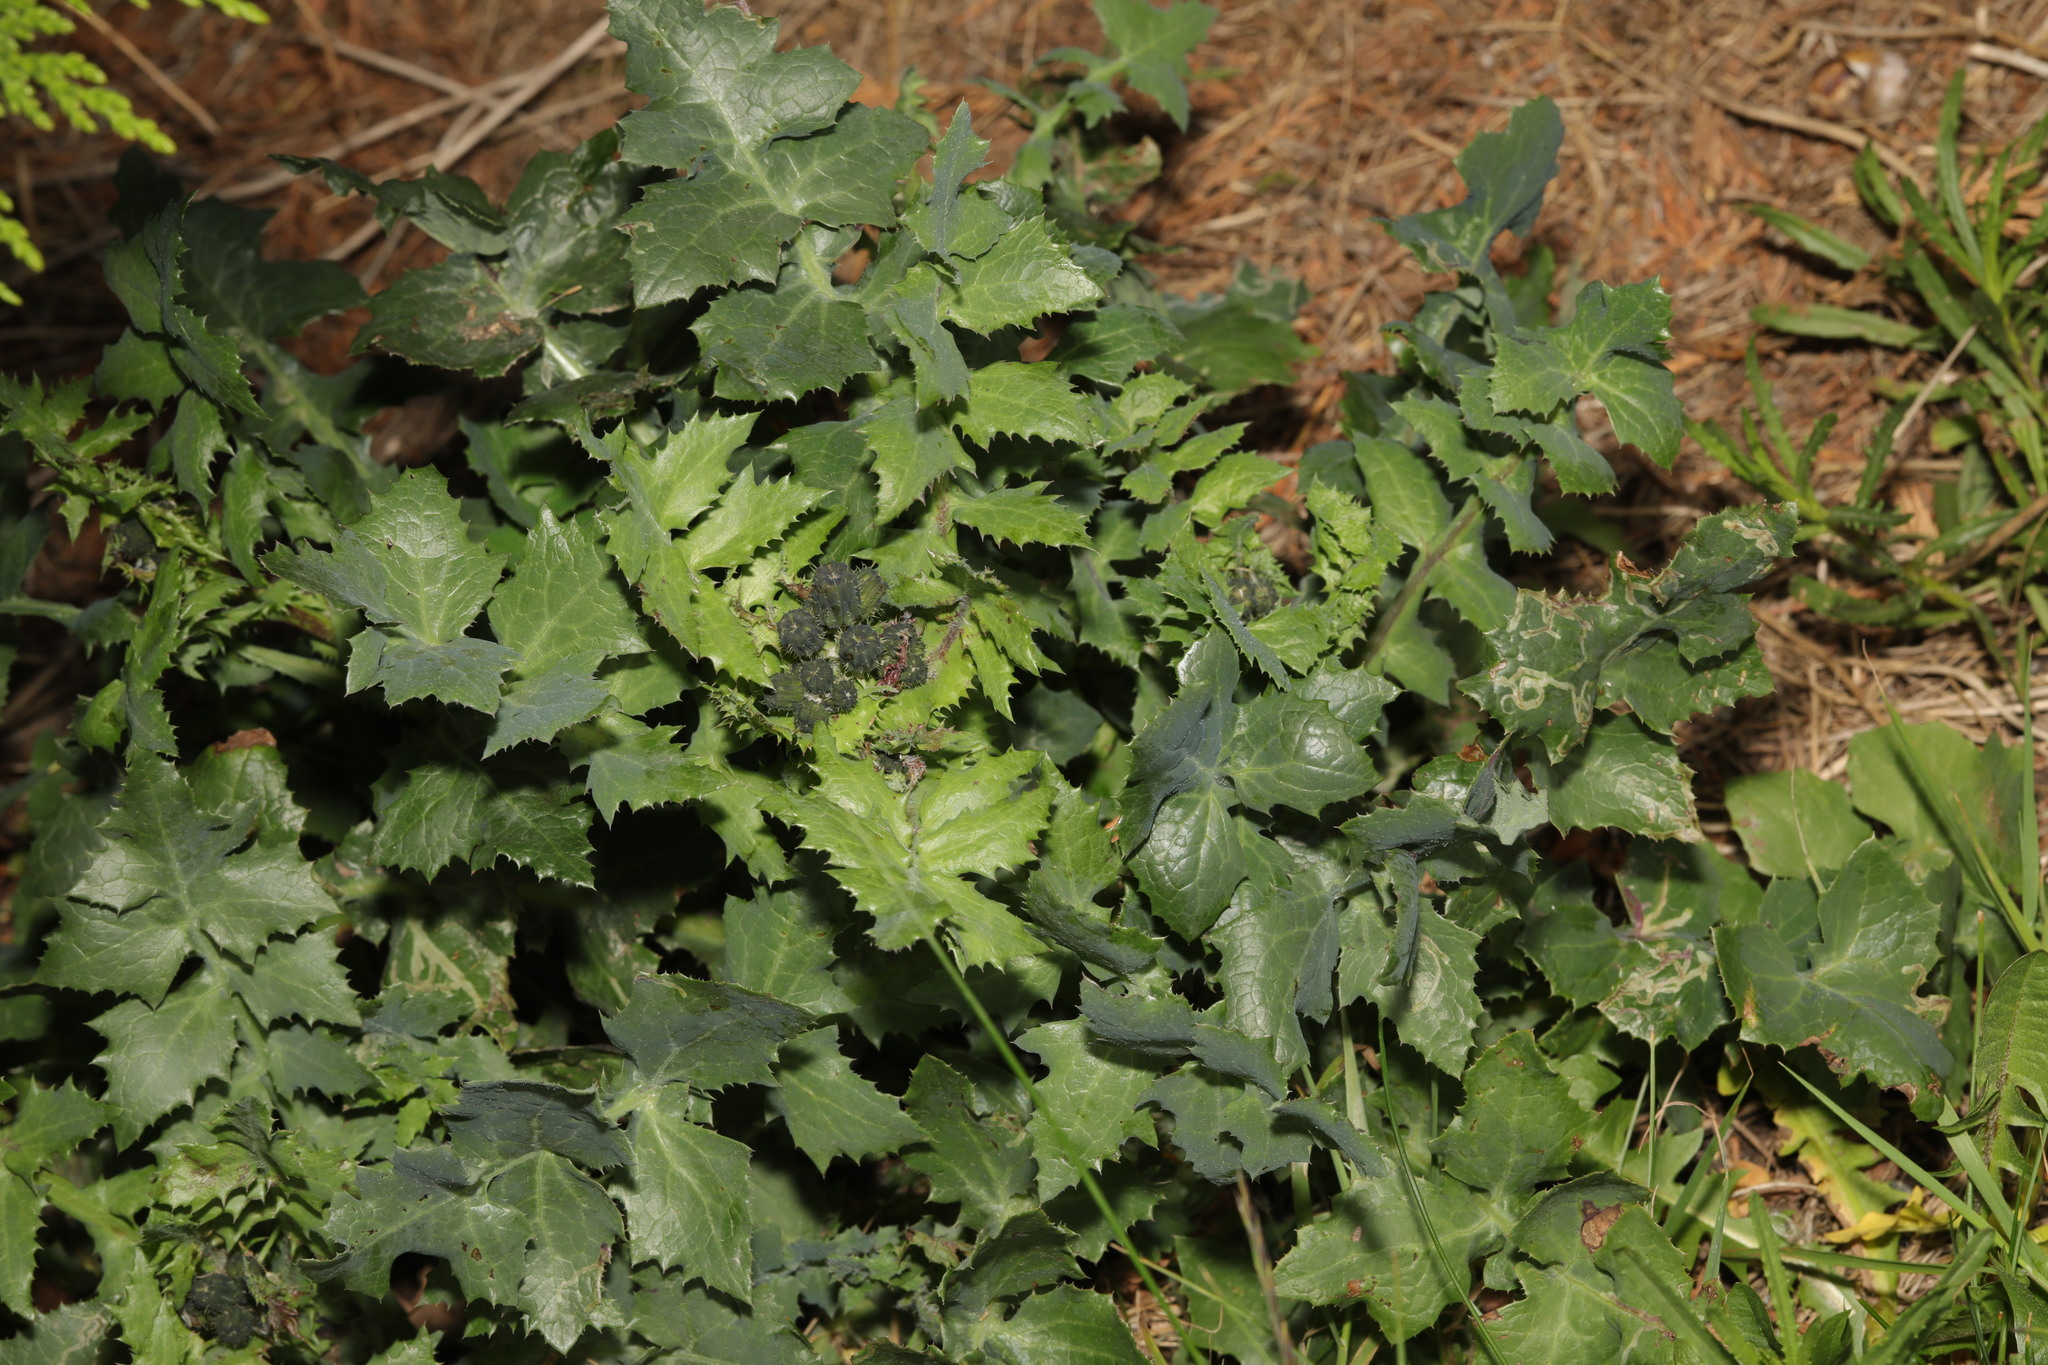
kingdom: Plantae
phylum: Tracheophyta
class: Magnoliopsida
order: Asterales
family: Asteraceae
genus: Sonchus
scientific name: Sonchus oleraceus
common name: Common sowthistle
